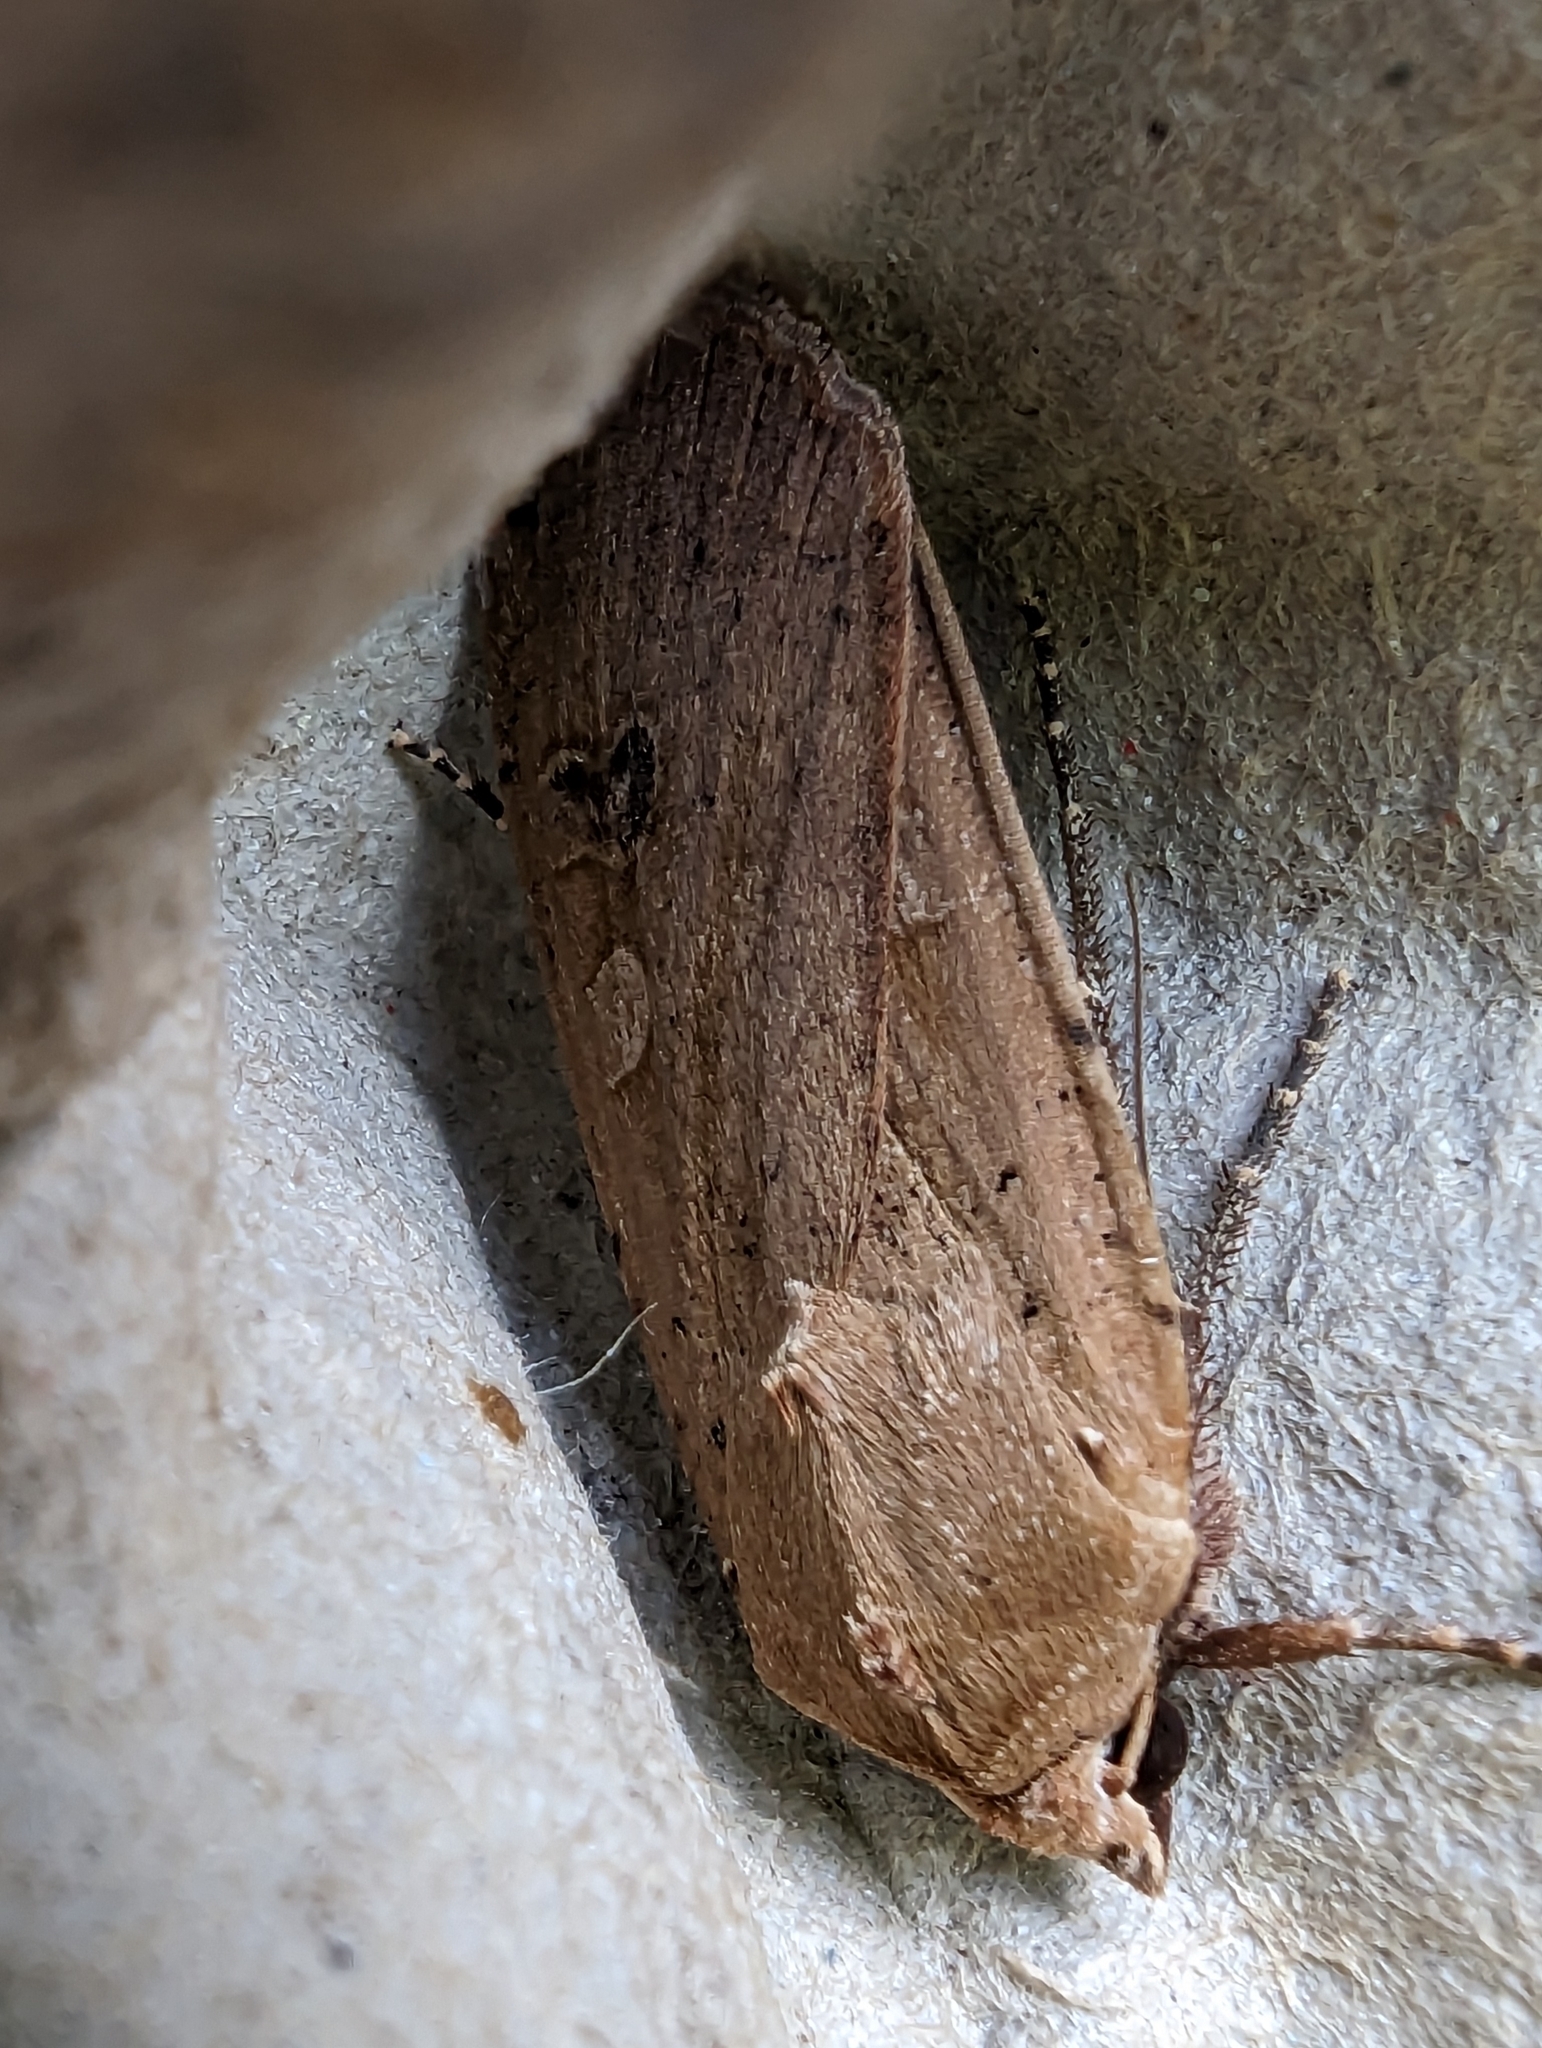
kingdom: Animalia
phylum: Arthropoda
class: Insecta
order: Lepidoptera
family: Noctuidae
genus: Noctua
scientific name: Noctua pronuba
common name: Large yellow underwing
